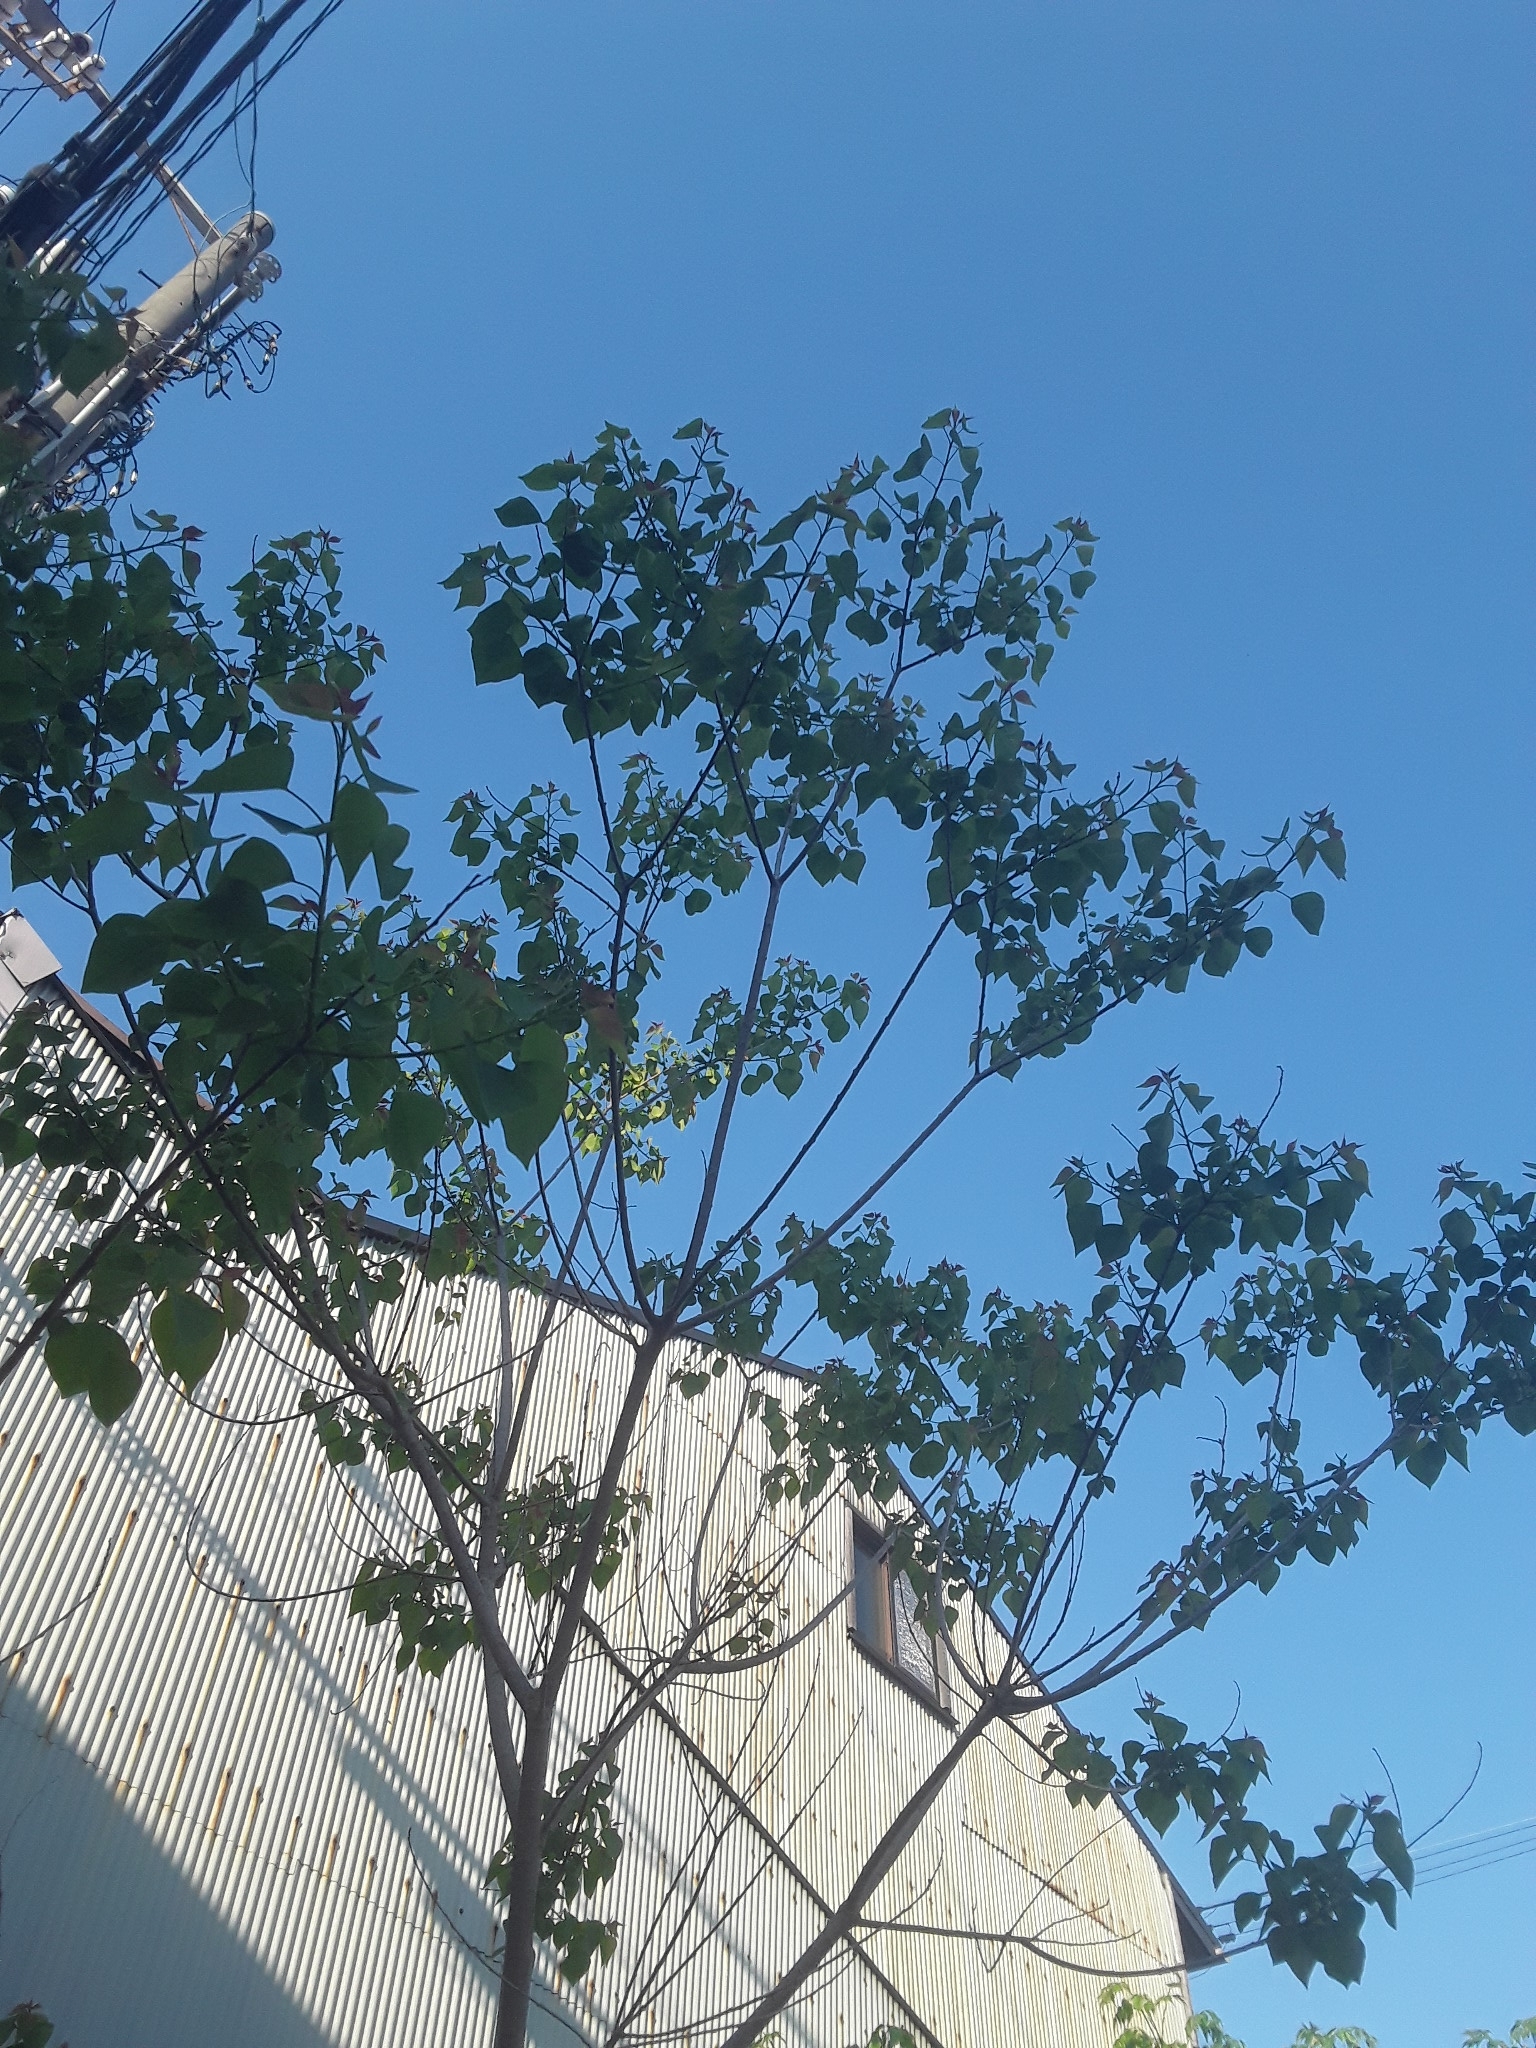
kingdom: Plantae
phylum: Tracheophyta
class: Magnoliopsida
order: Malpighiales
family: Euphorbiaceae
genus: Triadica
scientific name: Triadica sebifera
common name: Chinese tallow
